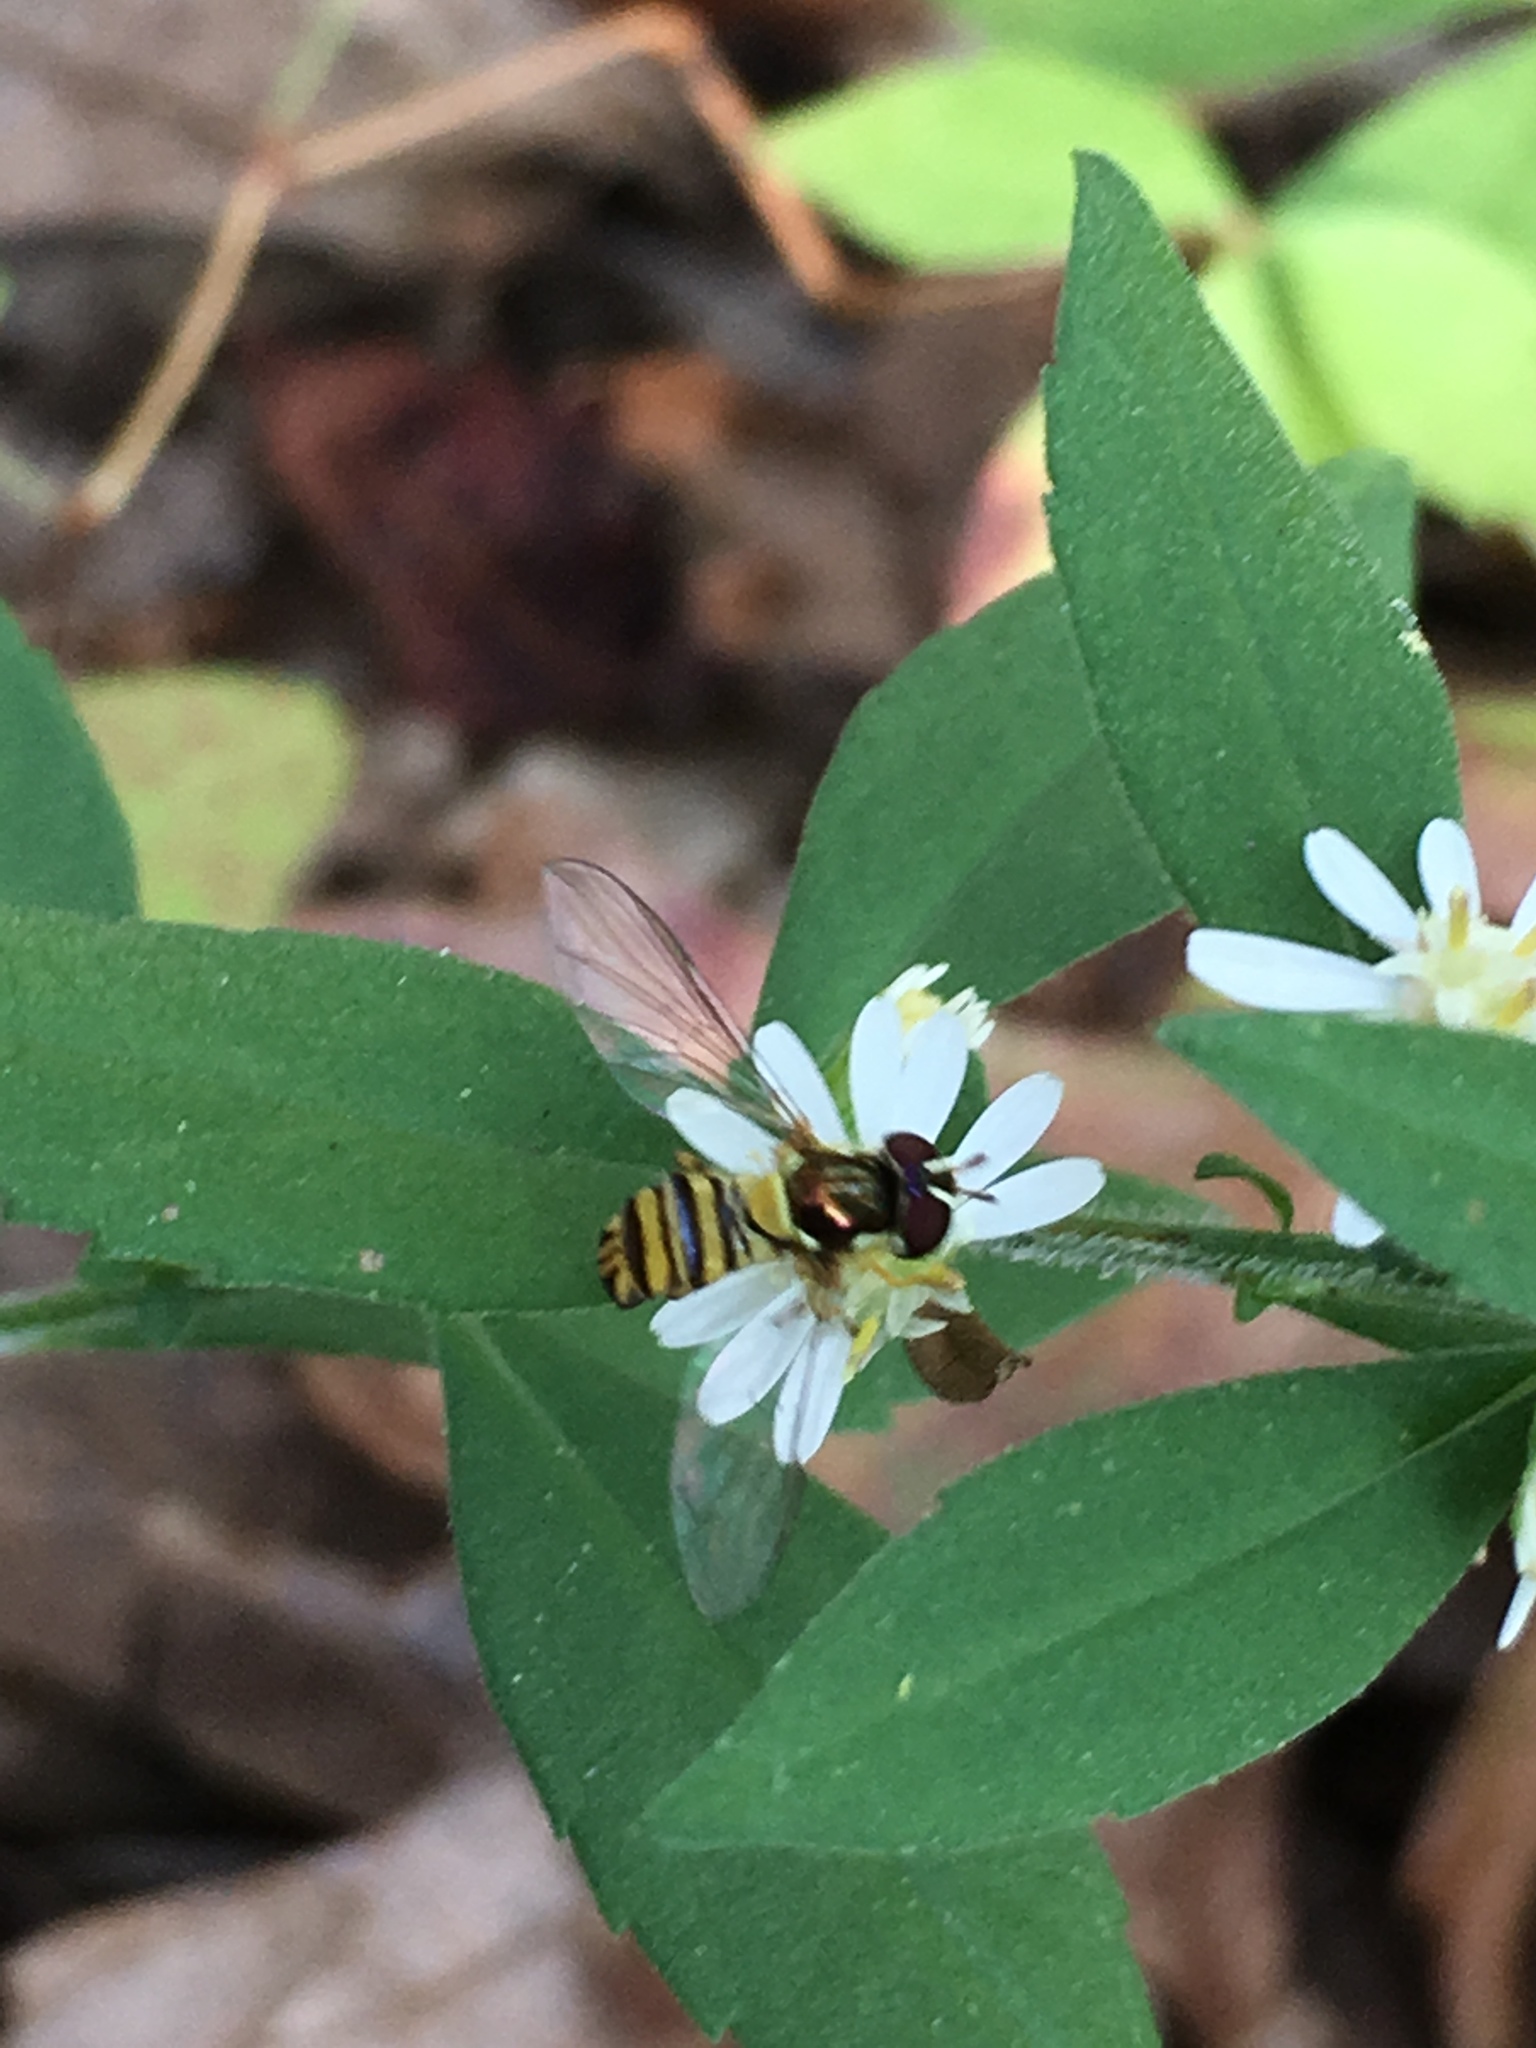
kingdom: Animalia
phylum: Arthropoda
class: Insecta
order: Diptera
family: Syrphidae
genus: Allograpta
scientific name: Allograpta obliqua
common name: Common oblique syrphid
